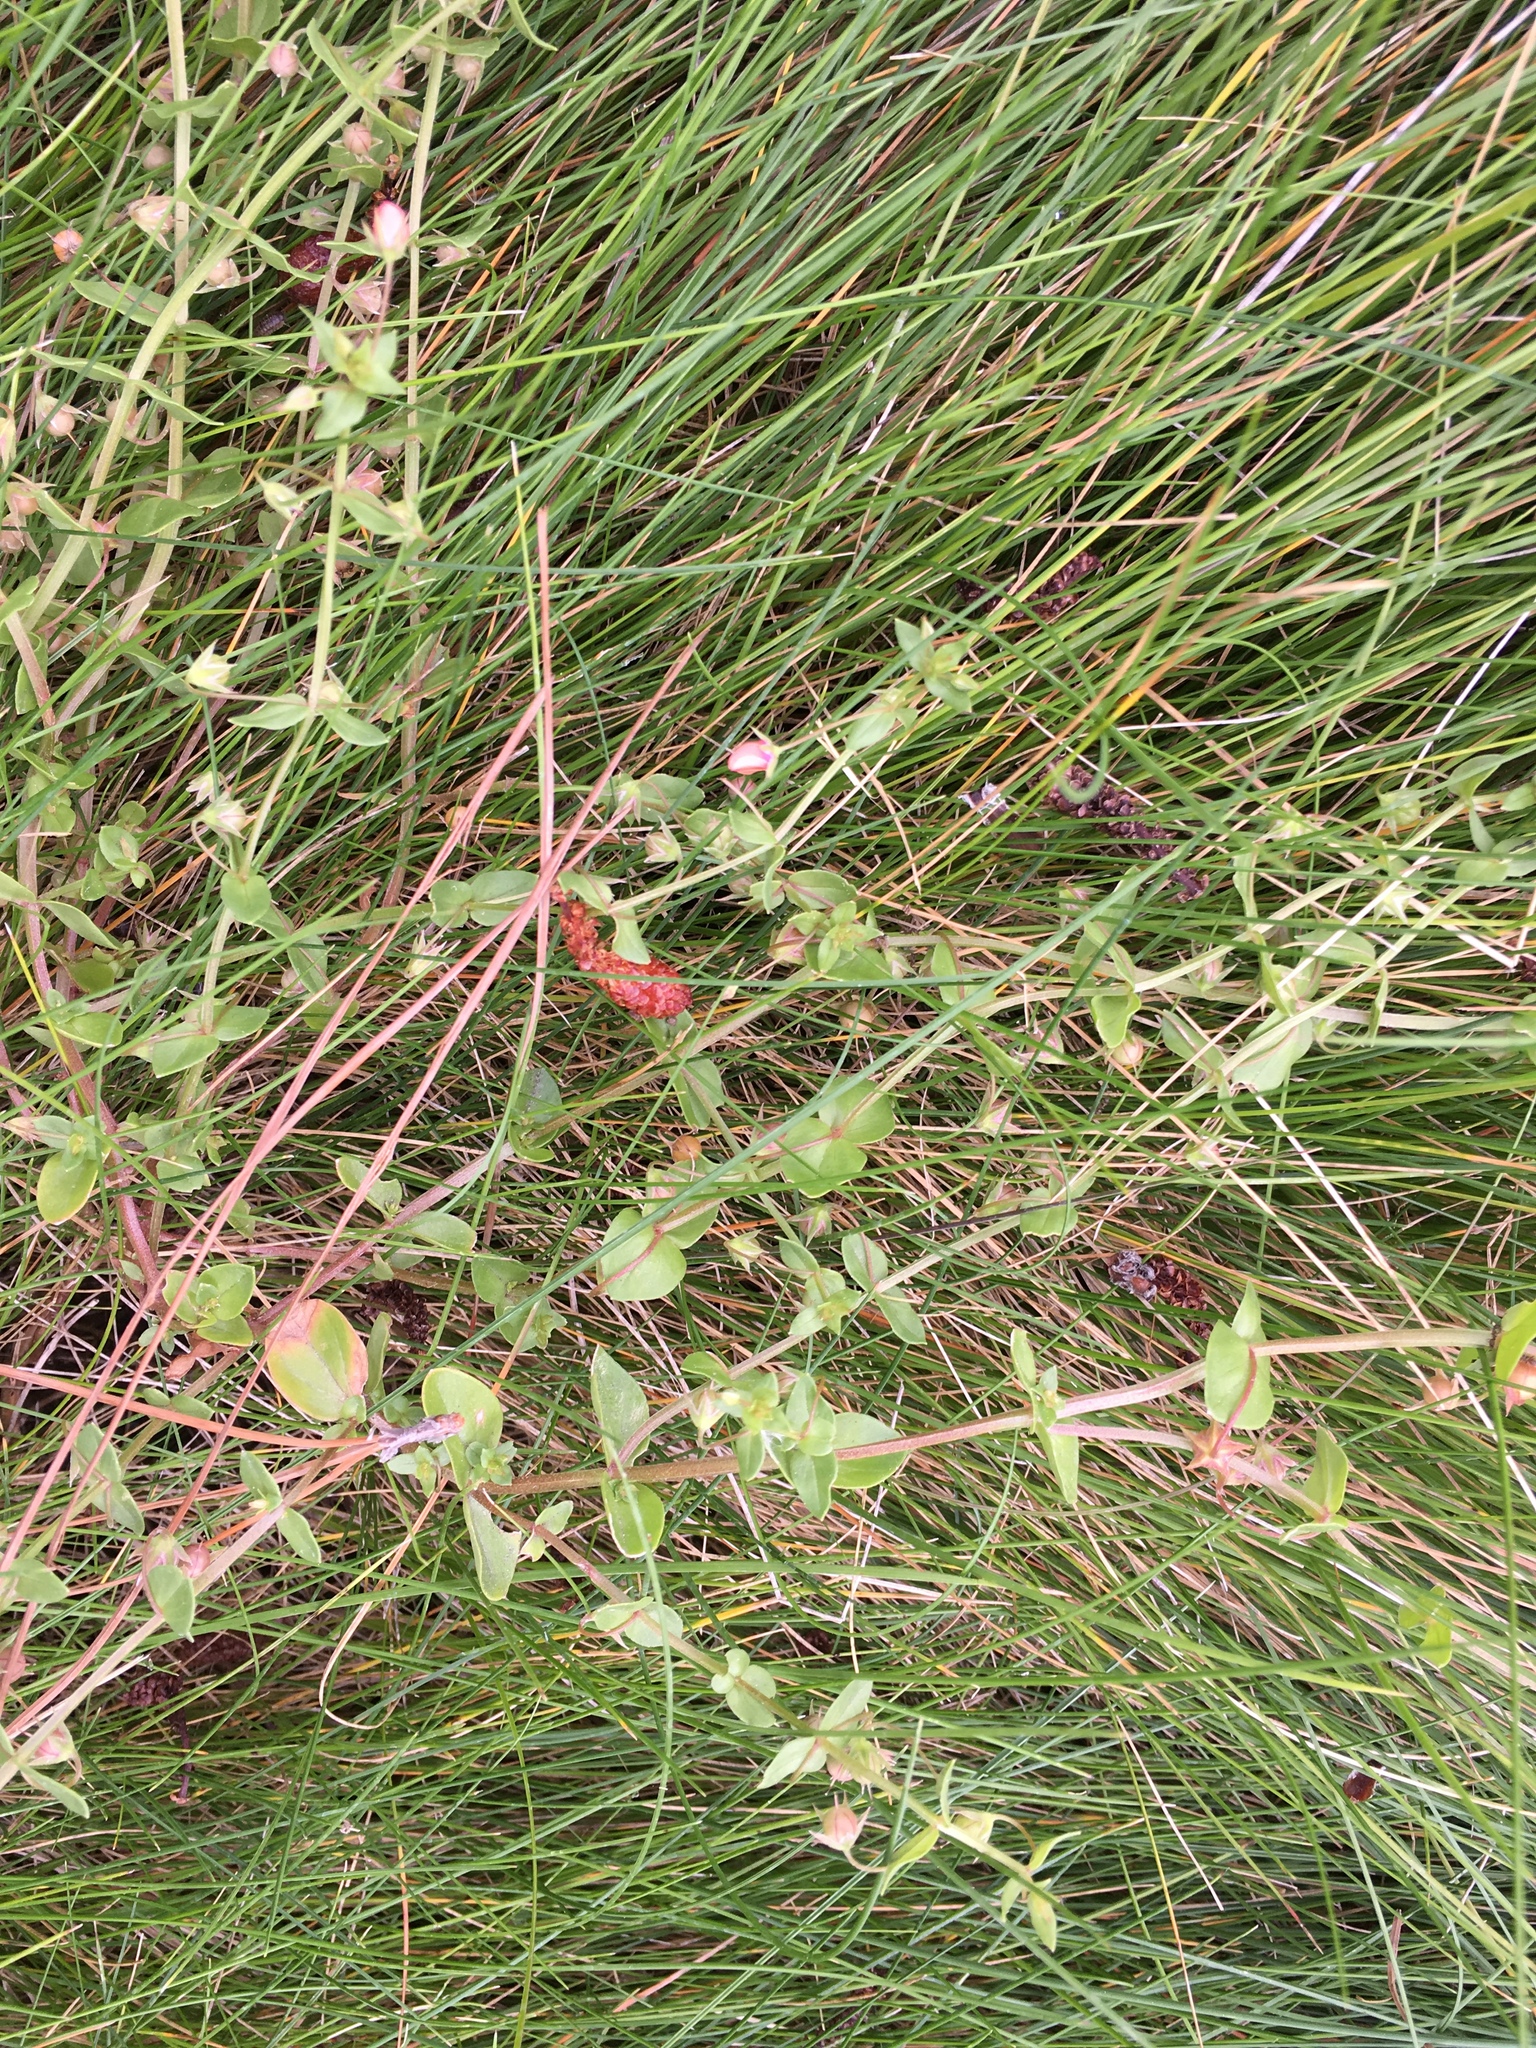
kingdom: Plantae
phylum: Tracheophyta
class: Magnoliopsida
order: Ericales
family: Primulaceae
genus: Lysimachia
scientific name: Lysimachia arvensis
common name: Scarlet pimpernel
